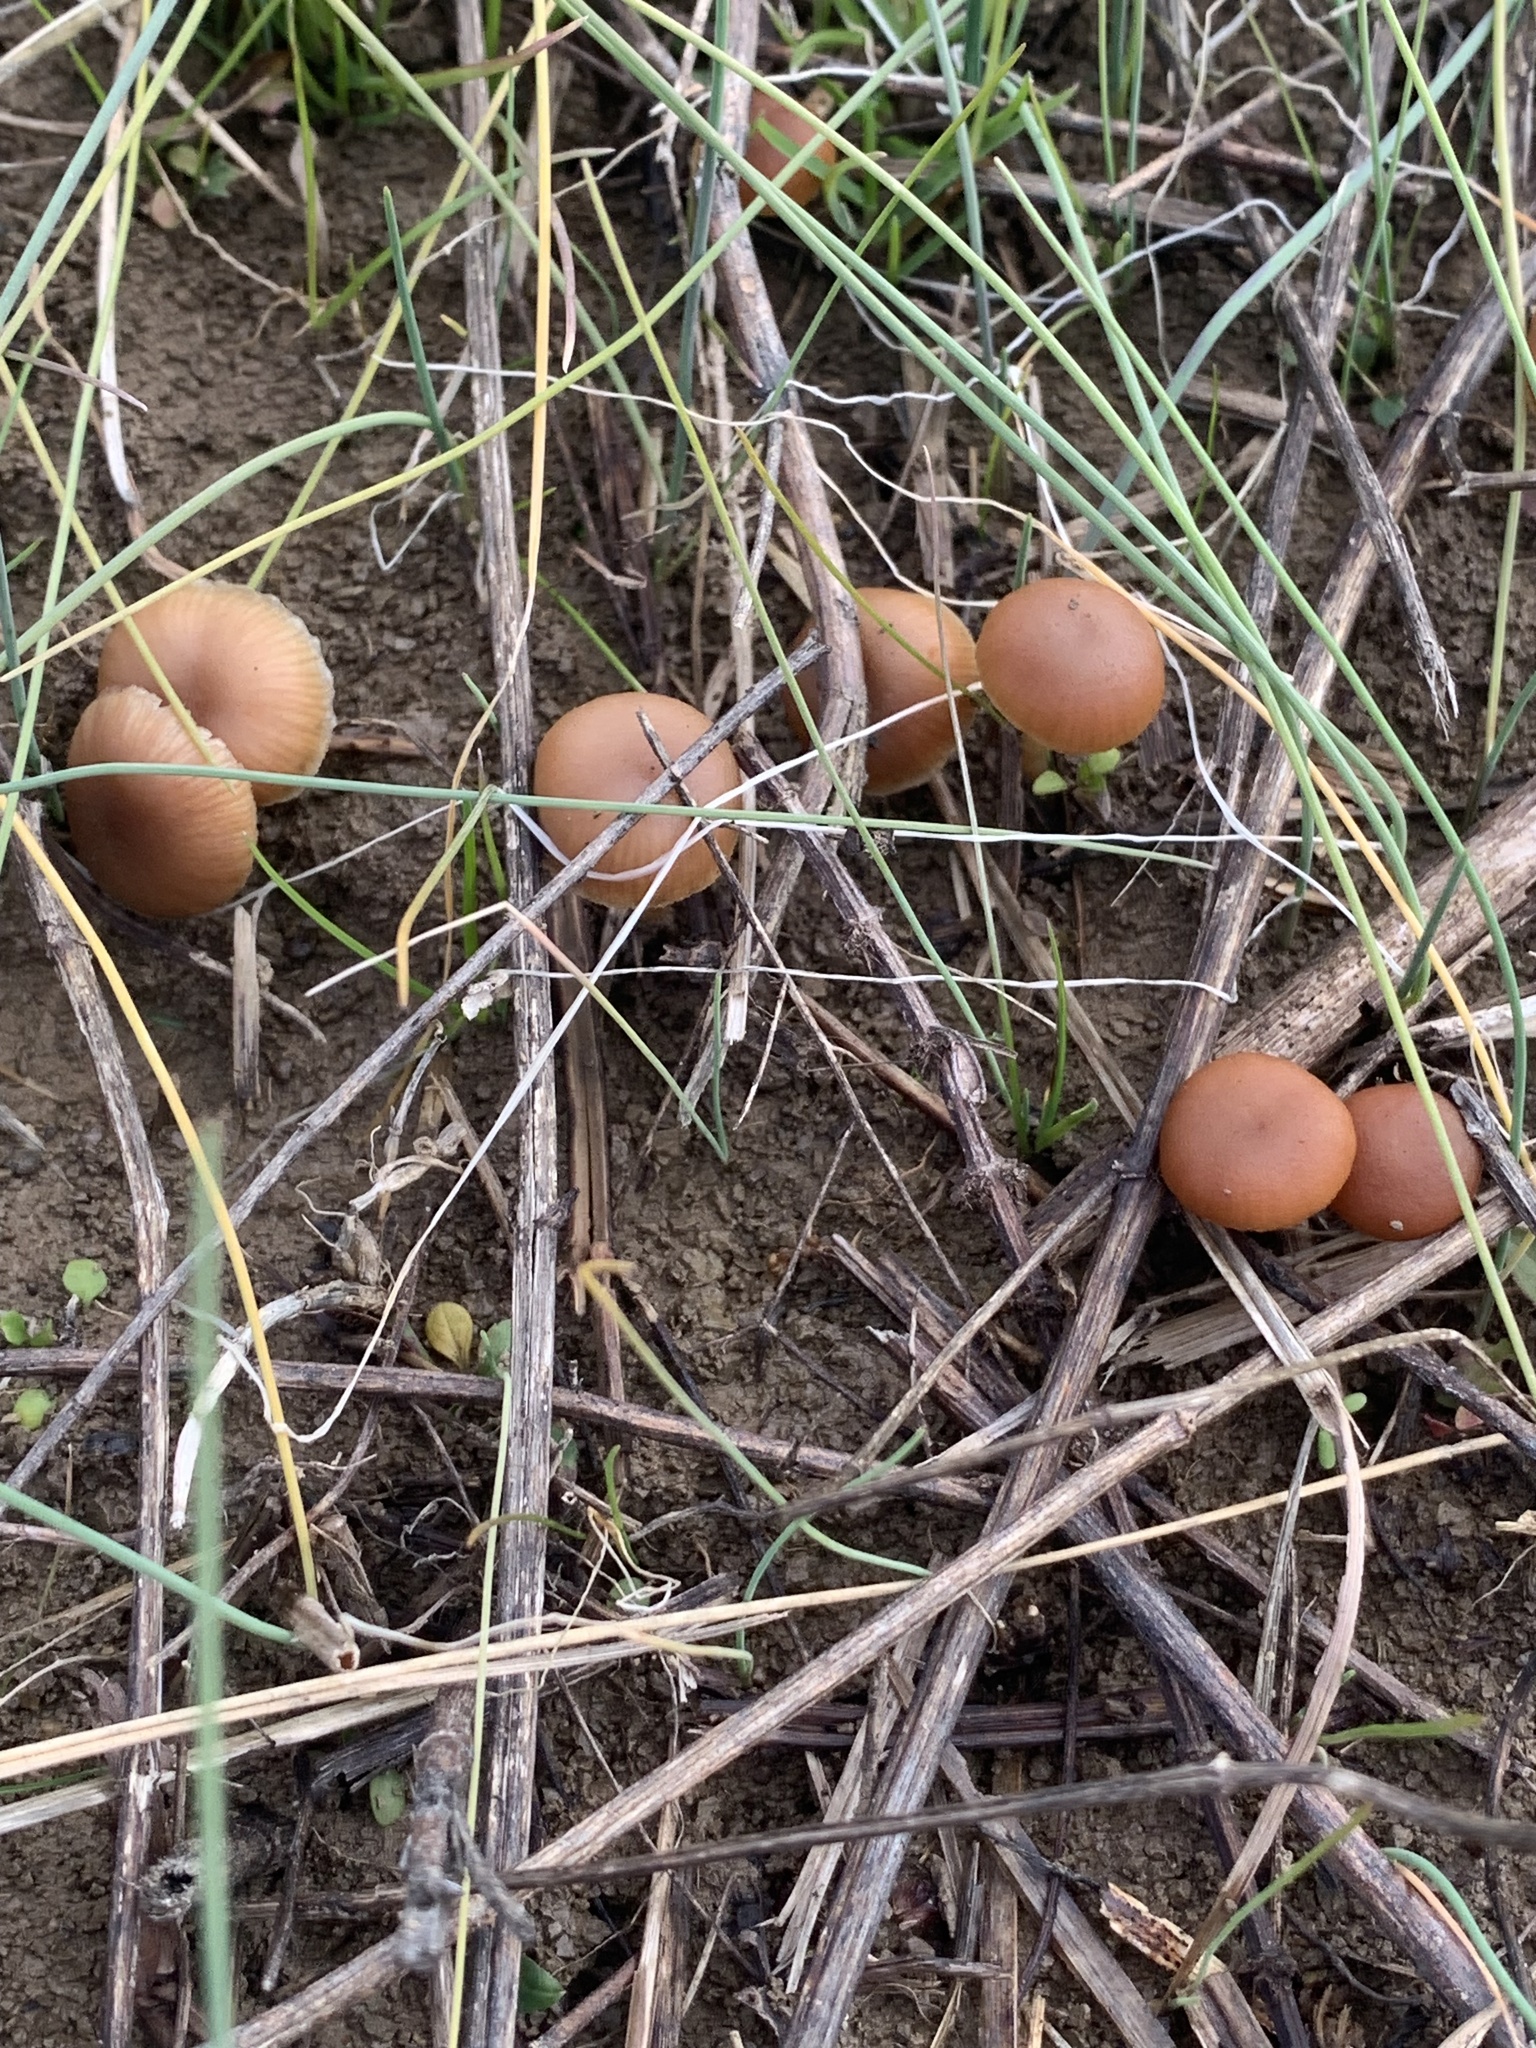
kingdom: Fungi
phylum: Basidiomycota
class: Agaricomycetes
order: Agaricales
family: Tubariaceae
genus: Tubaria
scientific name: Tubaria furfuracea
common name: Scurfy twiglet
